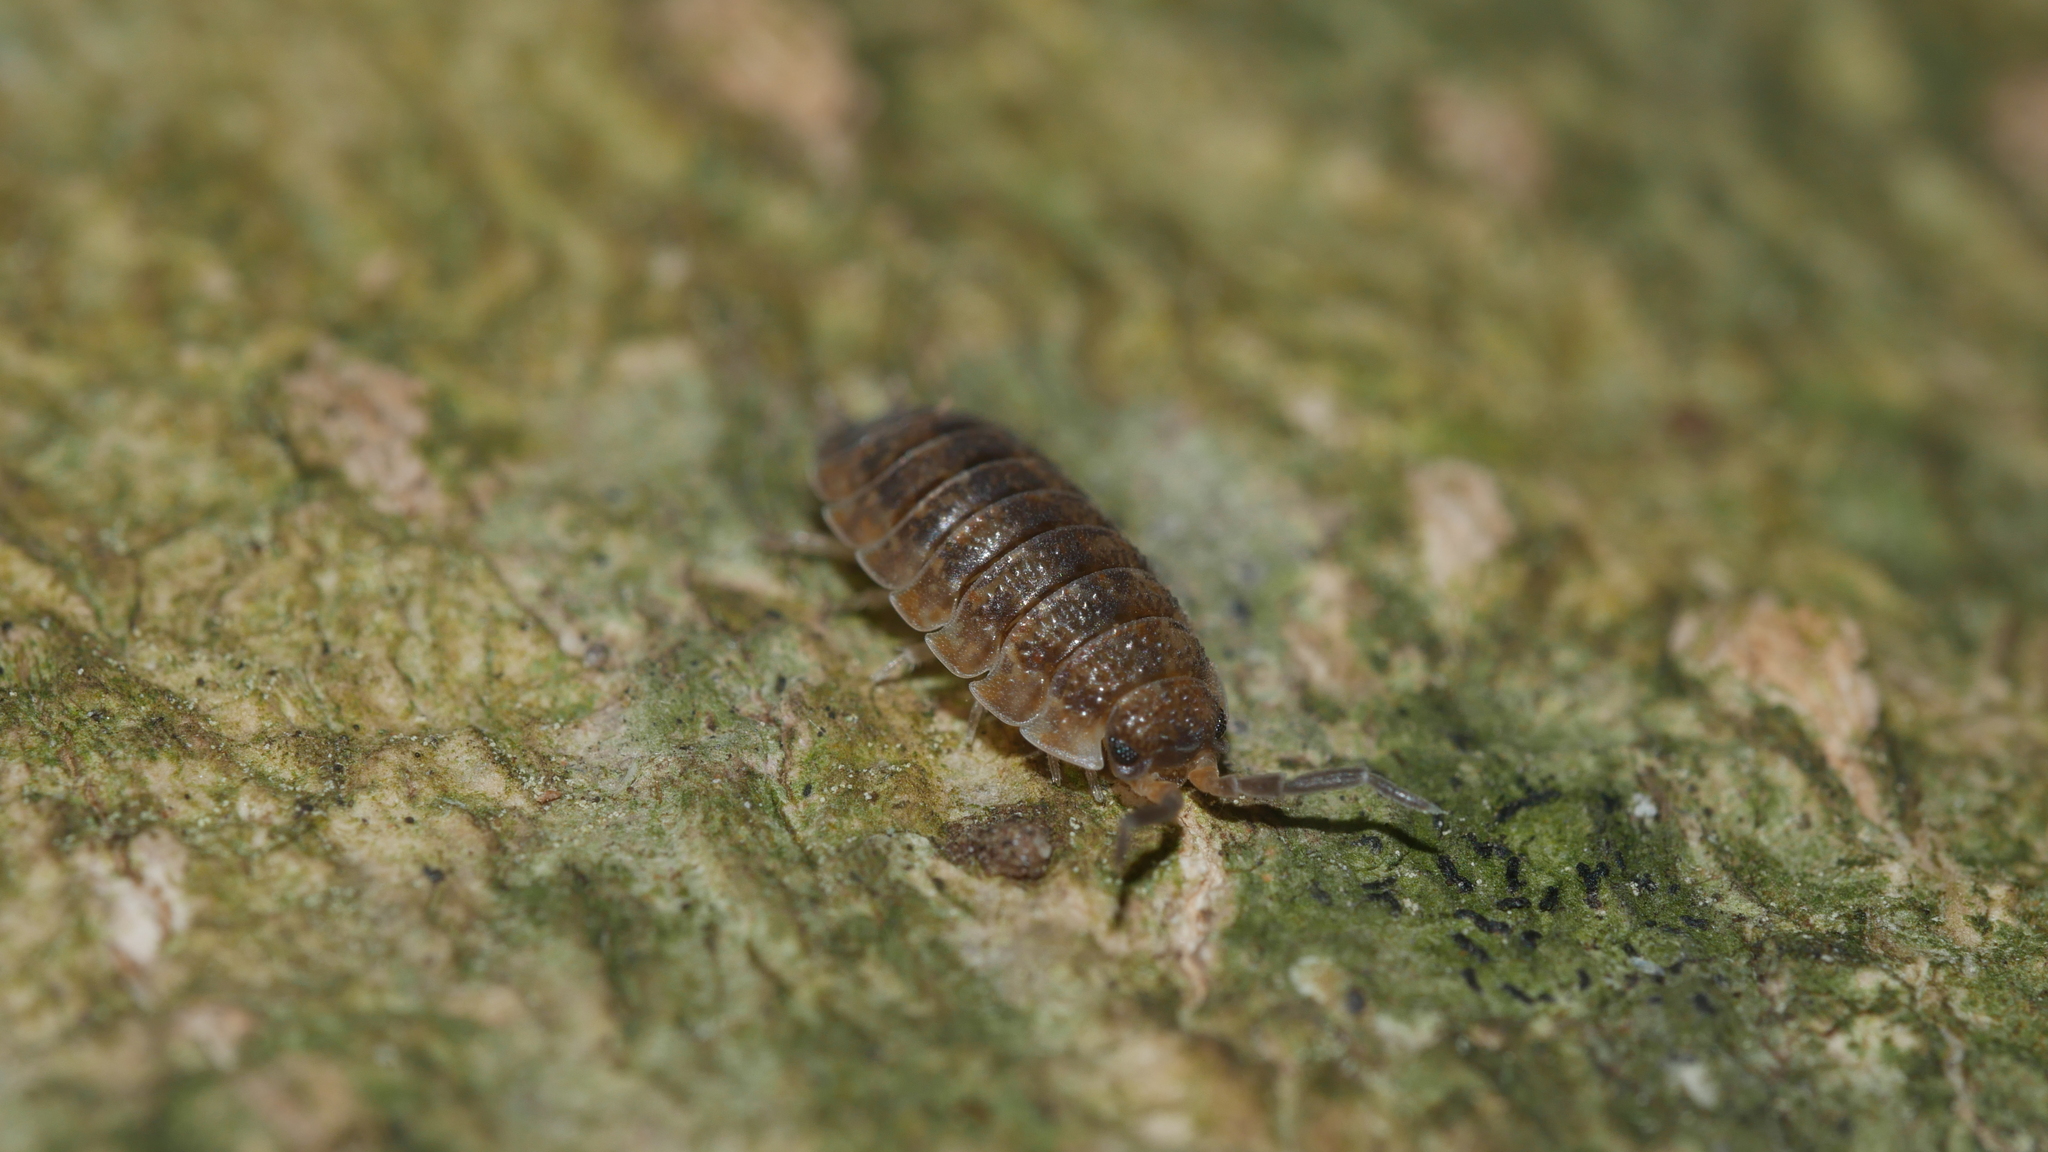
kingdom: Animalia
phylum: Arthropoda
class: Malacostraca
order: Isopoda
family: Porcellionidae
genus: Porcellio
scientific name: Porcellio scaber
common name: Common rough woodlouse
